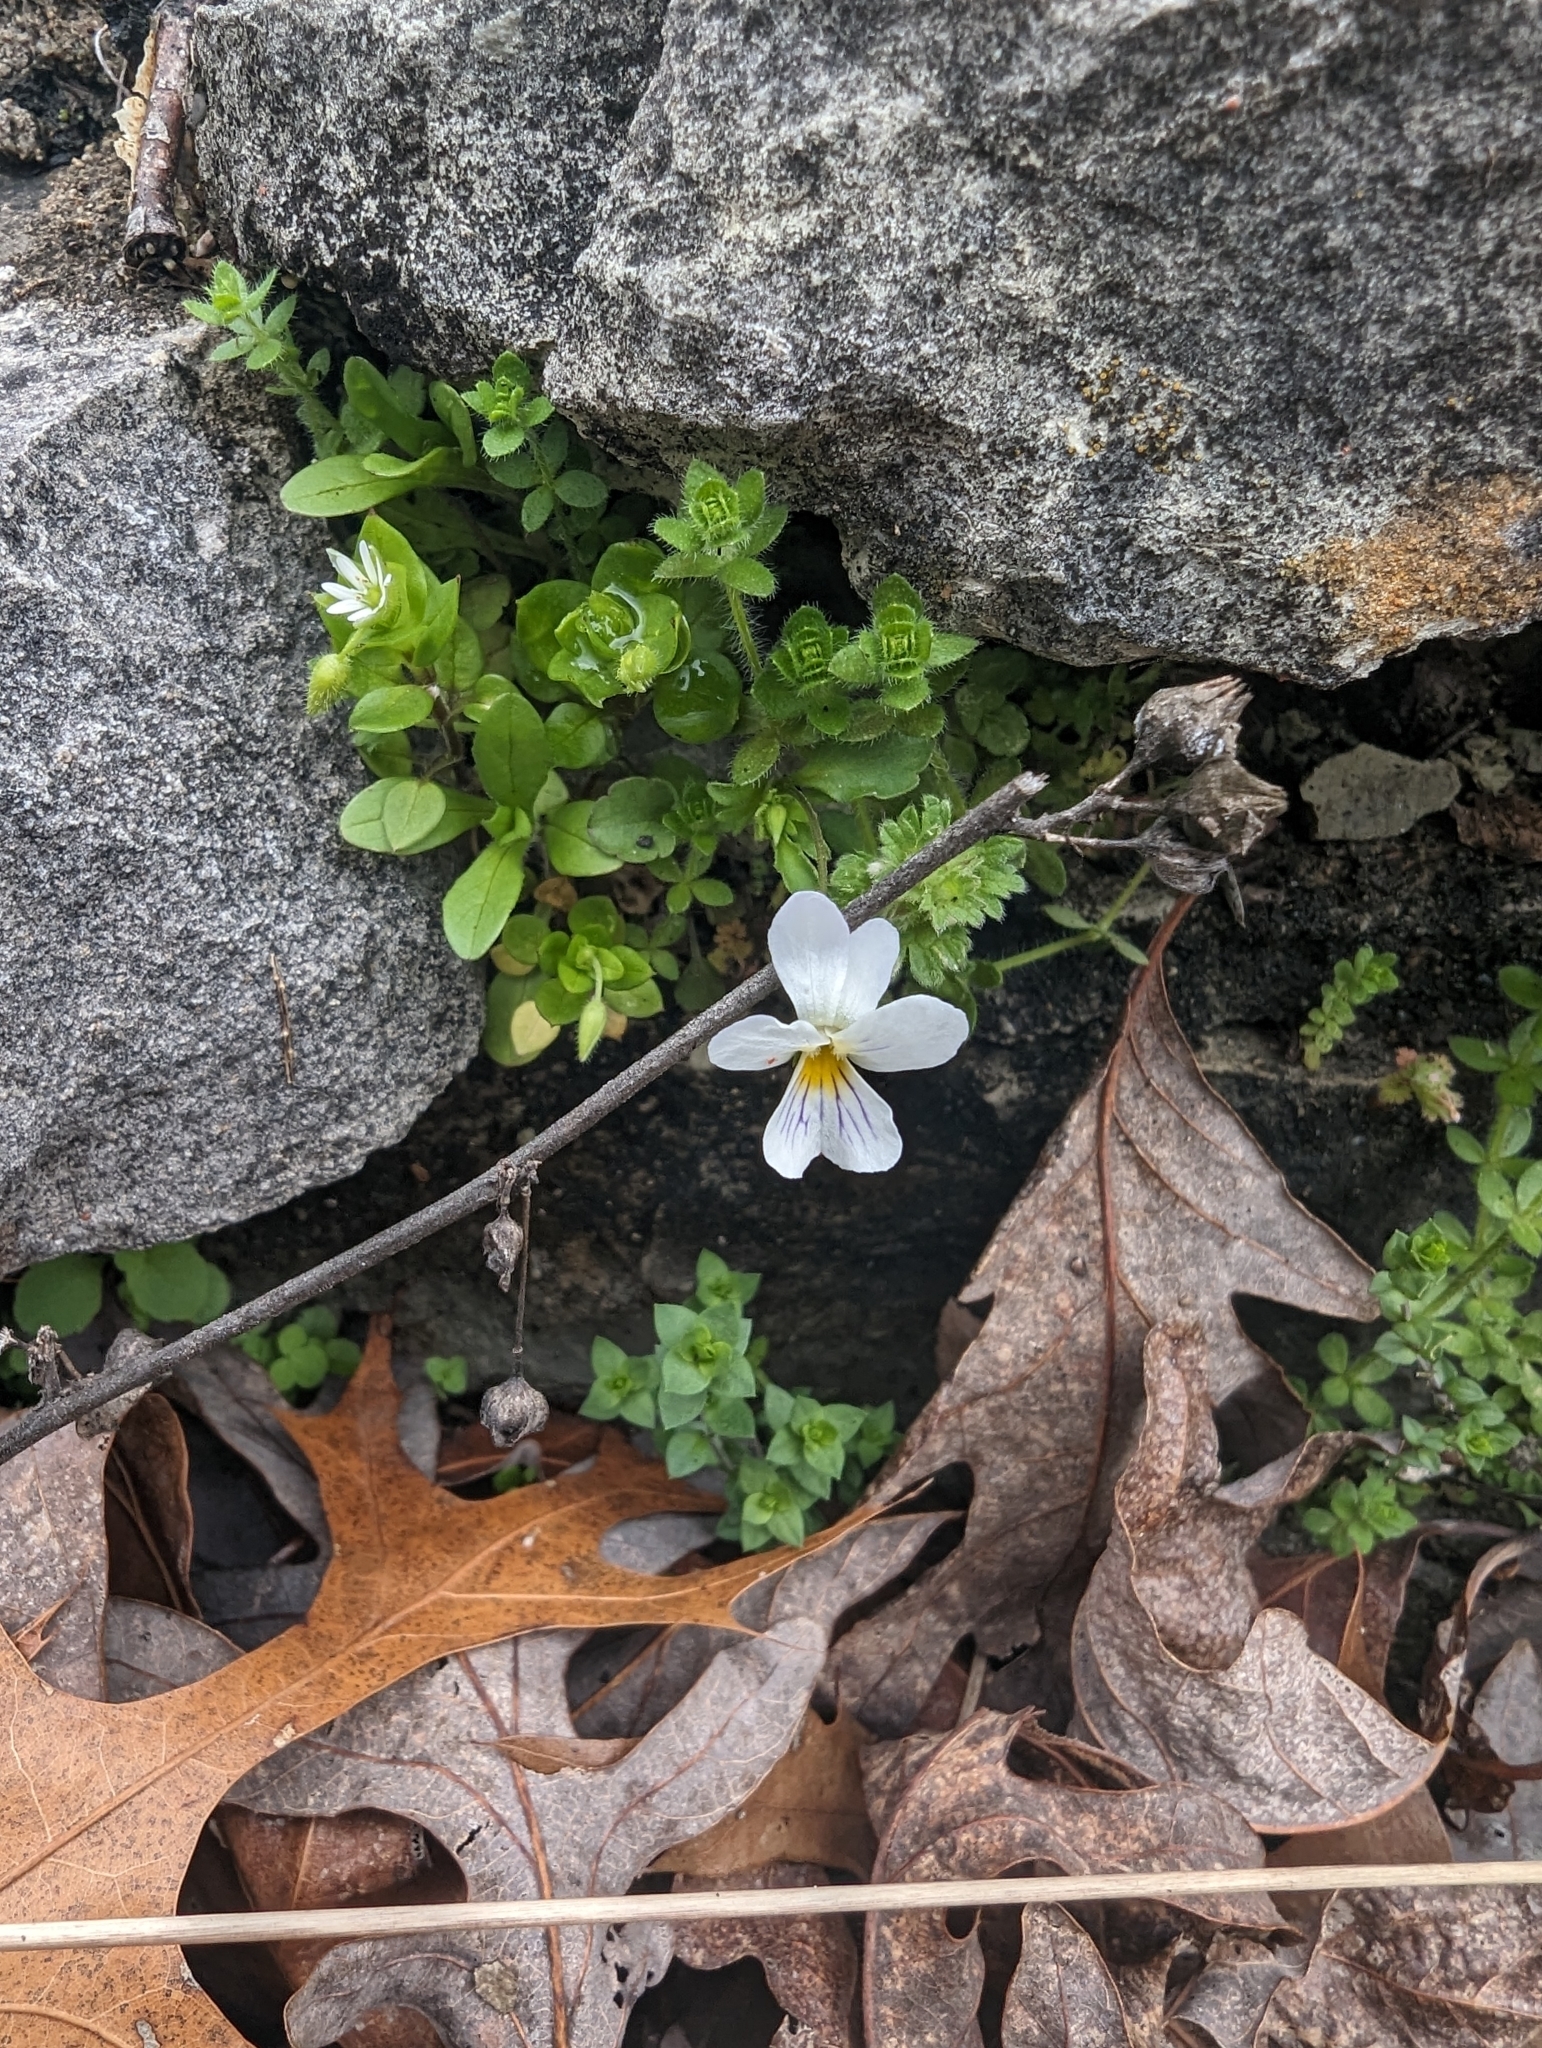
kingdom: Plantae
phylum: Tracheophyta
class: Magnoliopsida
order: Malpighiales
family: Violaceae
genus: Viola
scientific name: Viola rafinesquei
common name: American field pansy
